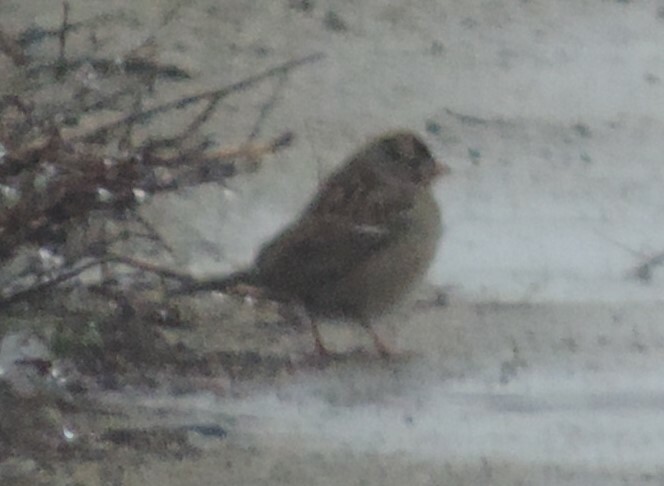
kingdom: Animalia
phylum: Chordata
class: Aves
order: Passeriformes
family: Passerellidae
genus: Zonotrichia
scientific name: Zonotrichia leucophrys
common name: White-crowned sparrow
